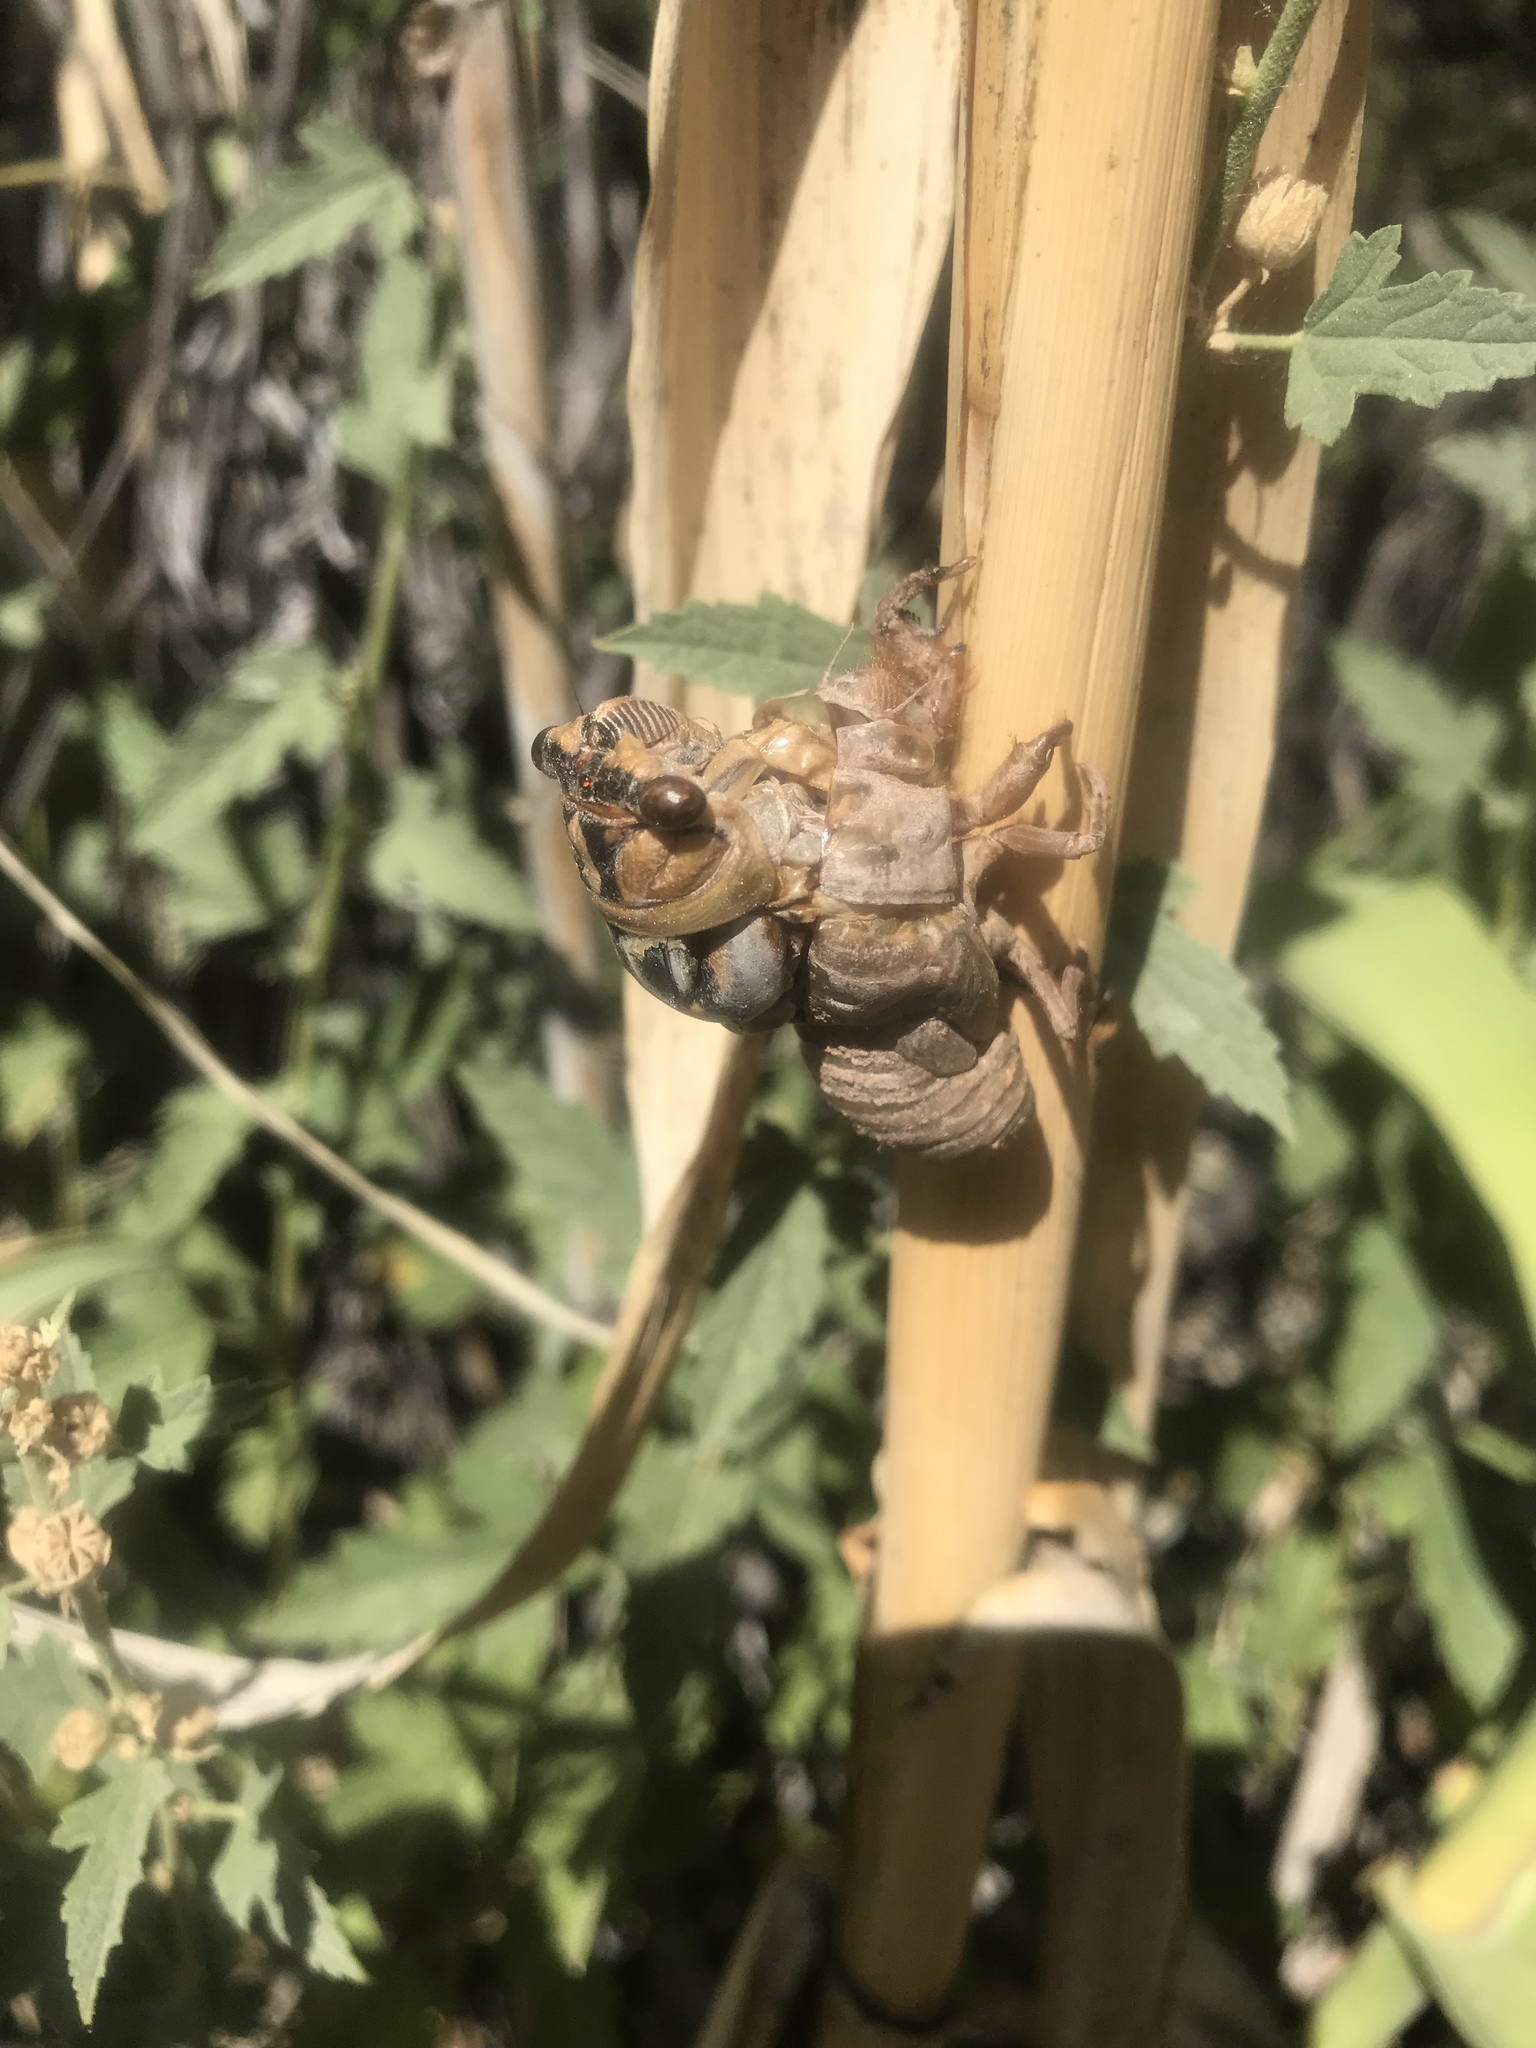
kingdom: Animalia
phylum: Arthropoda
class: Insecta
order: Hemiptera
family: Cicadidae
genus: Megatibicen
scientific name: Megatibicen dealbatus
